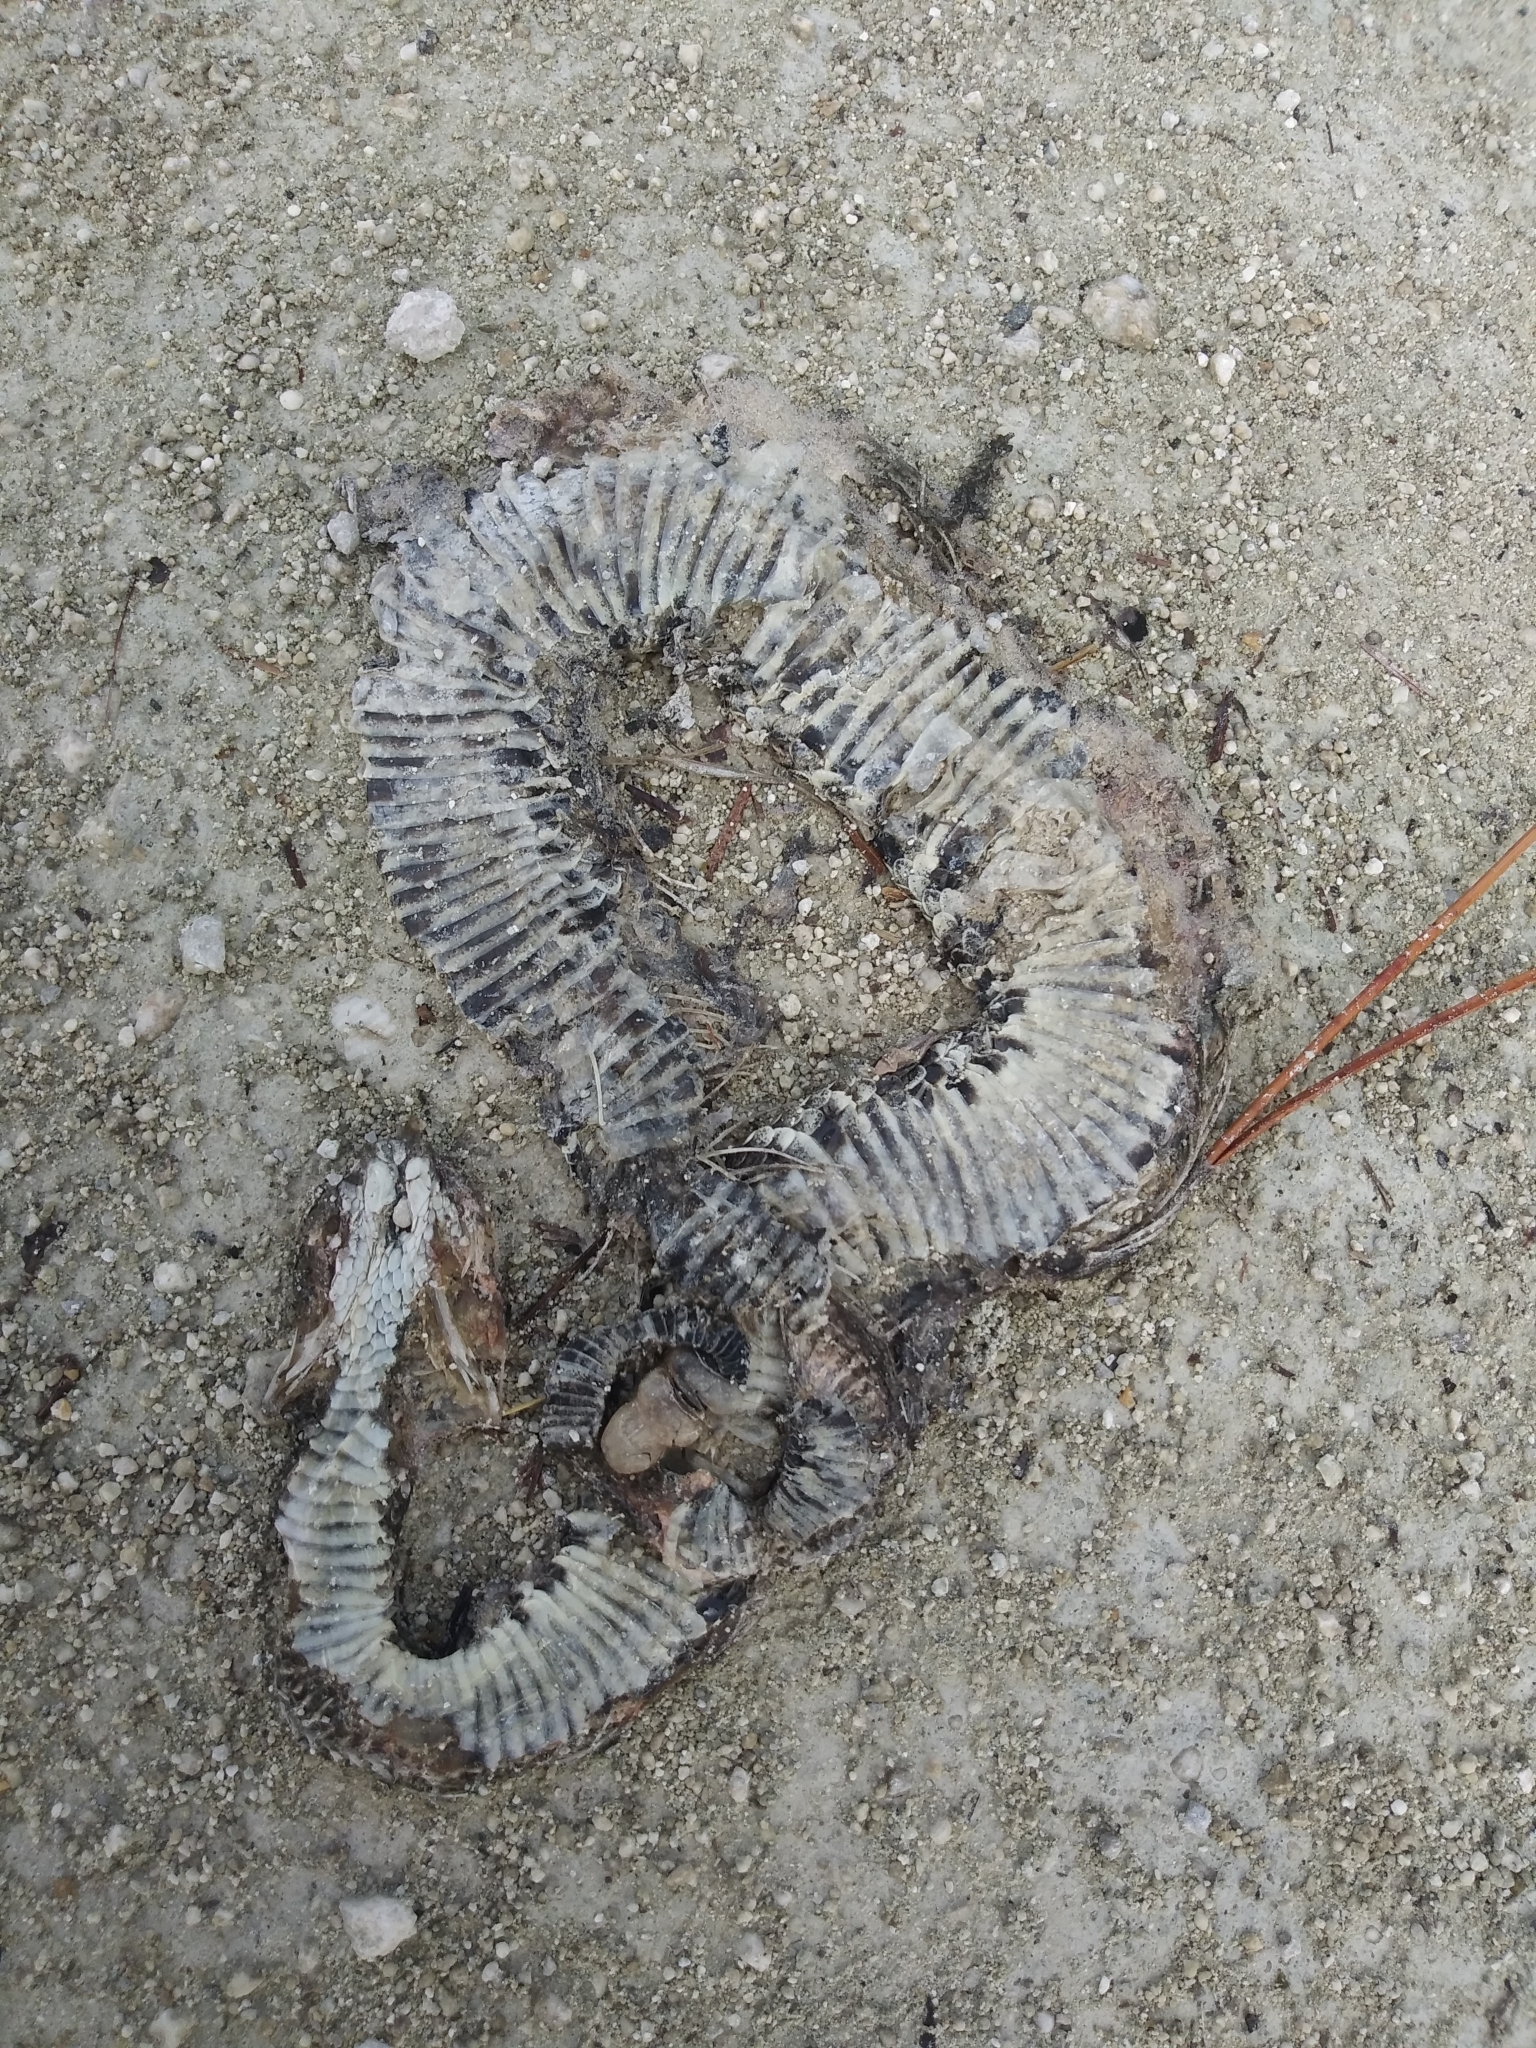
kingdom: Animalia
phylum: Chordata
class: Squamata
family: Viperidae
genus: Crotalus
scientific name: Crotalus adamanteus
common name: Eastern diamondback rattlesnake
